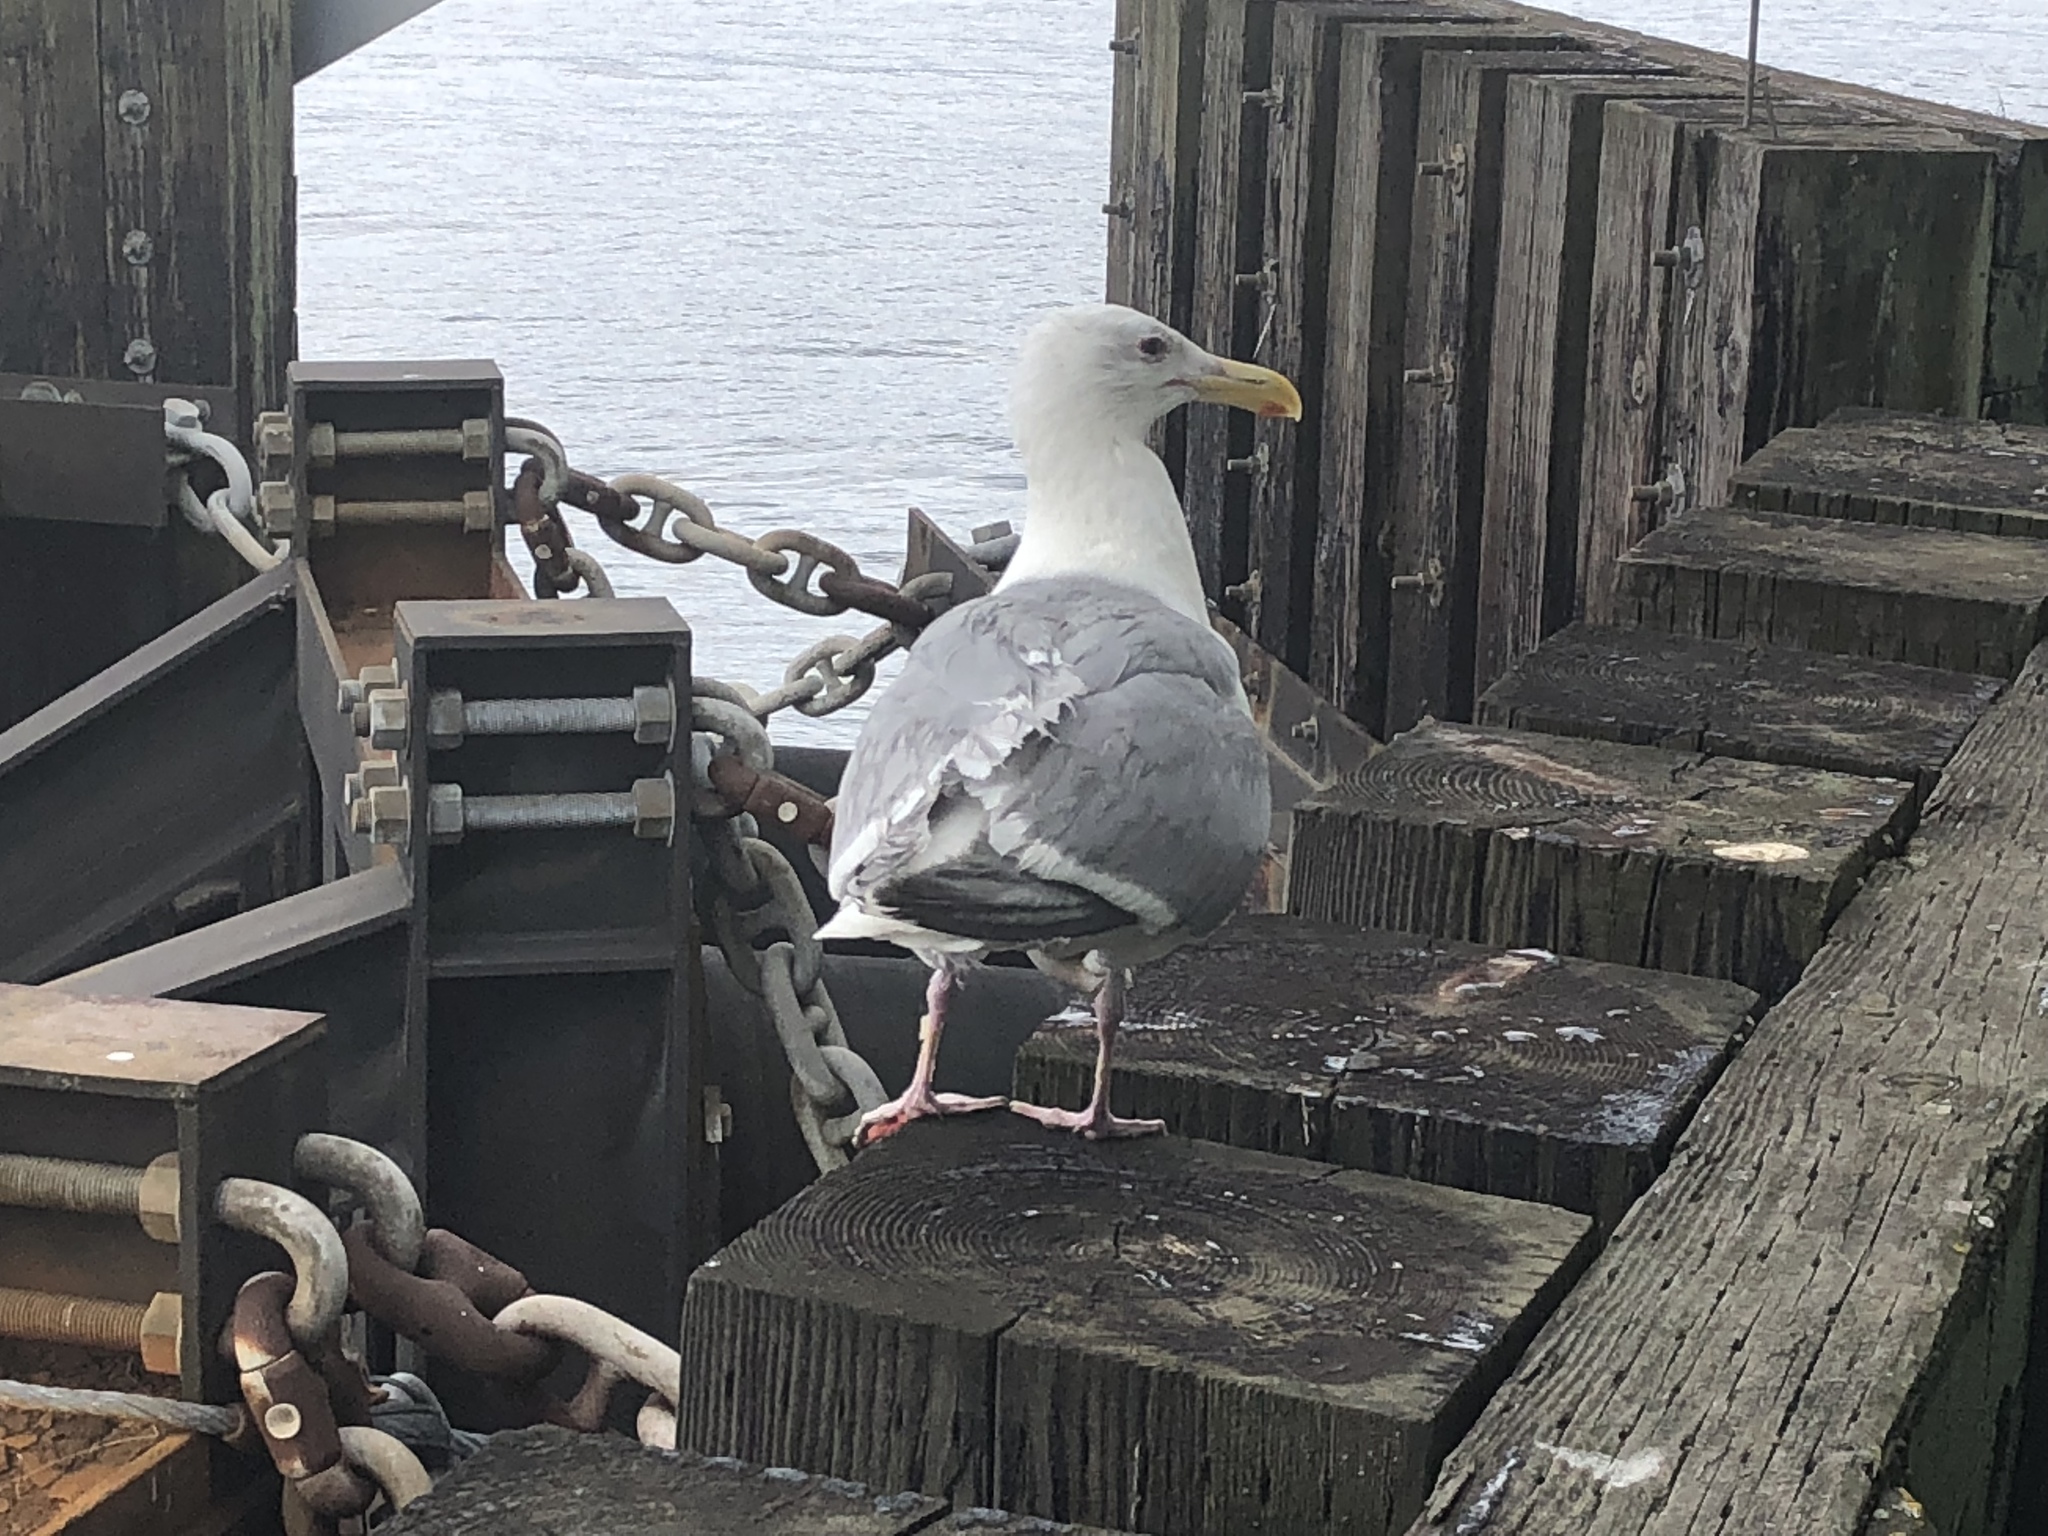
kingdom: Animalia
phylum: Chordata
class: Aves
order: Charadriiformes
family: Laridae
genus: Larus
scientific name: Larus
